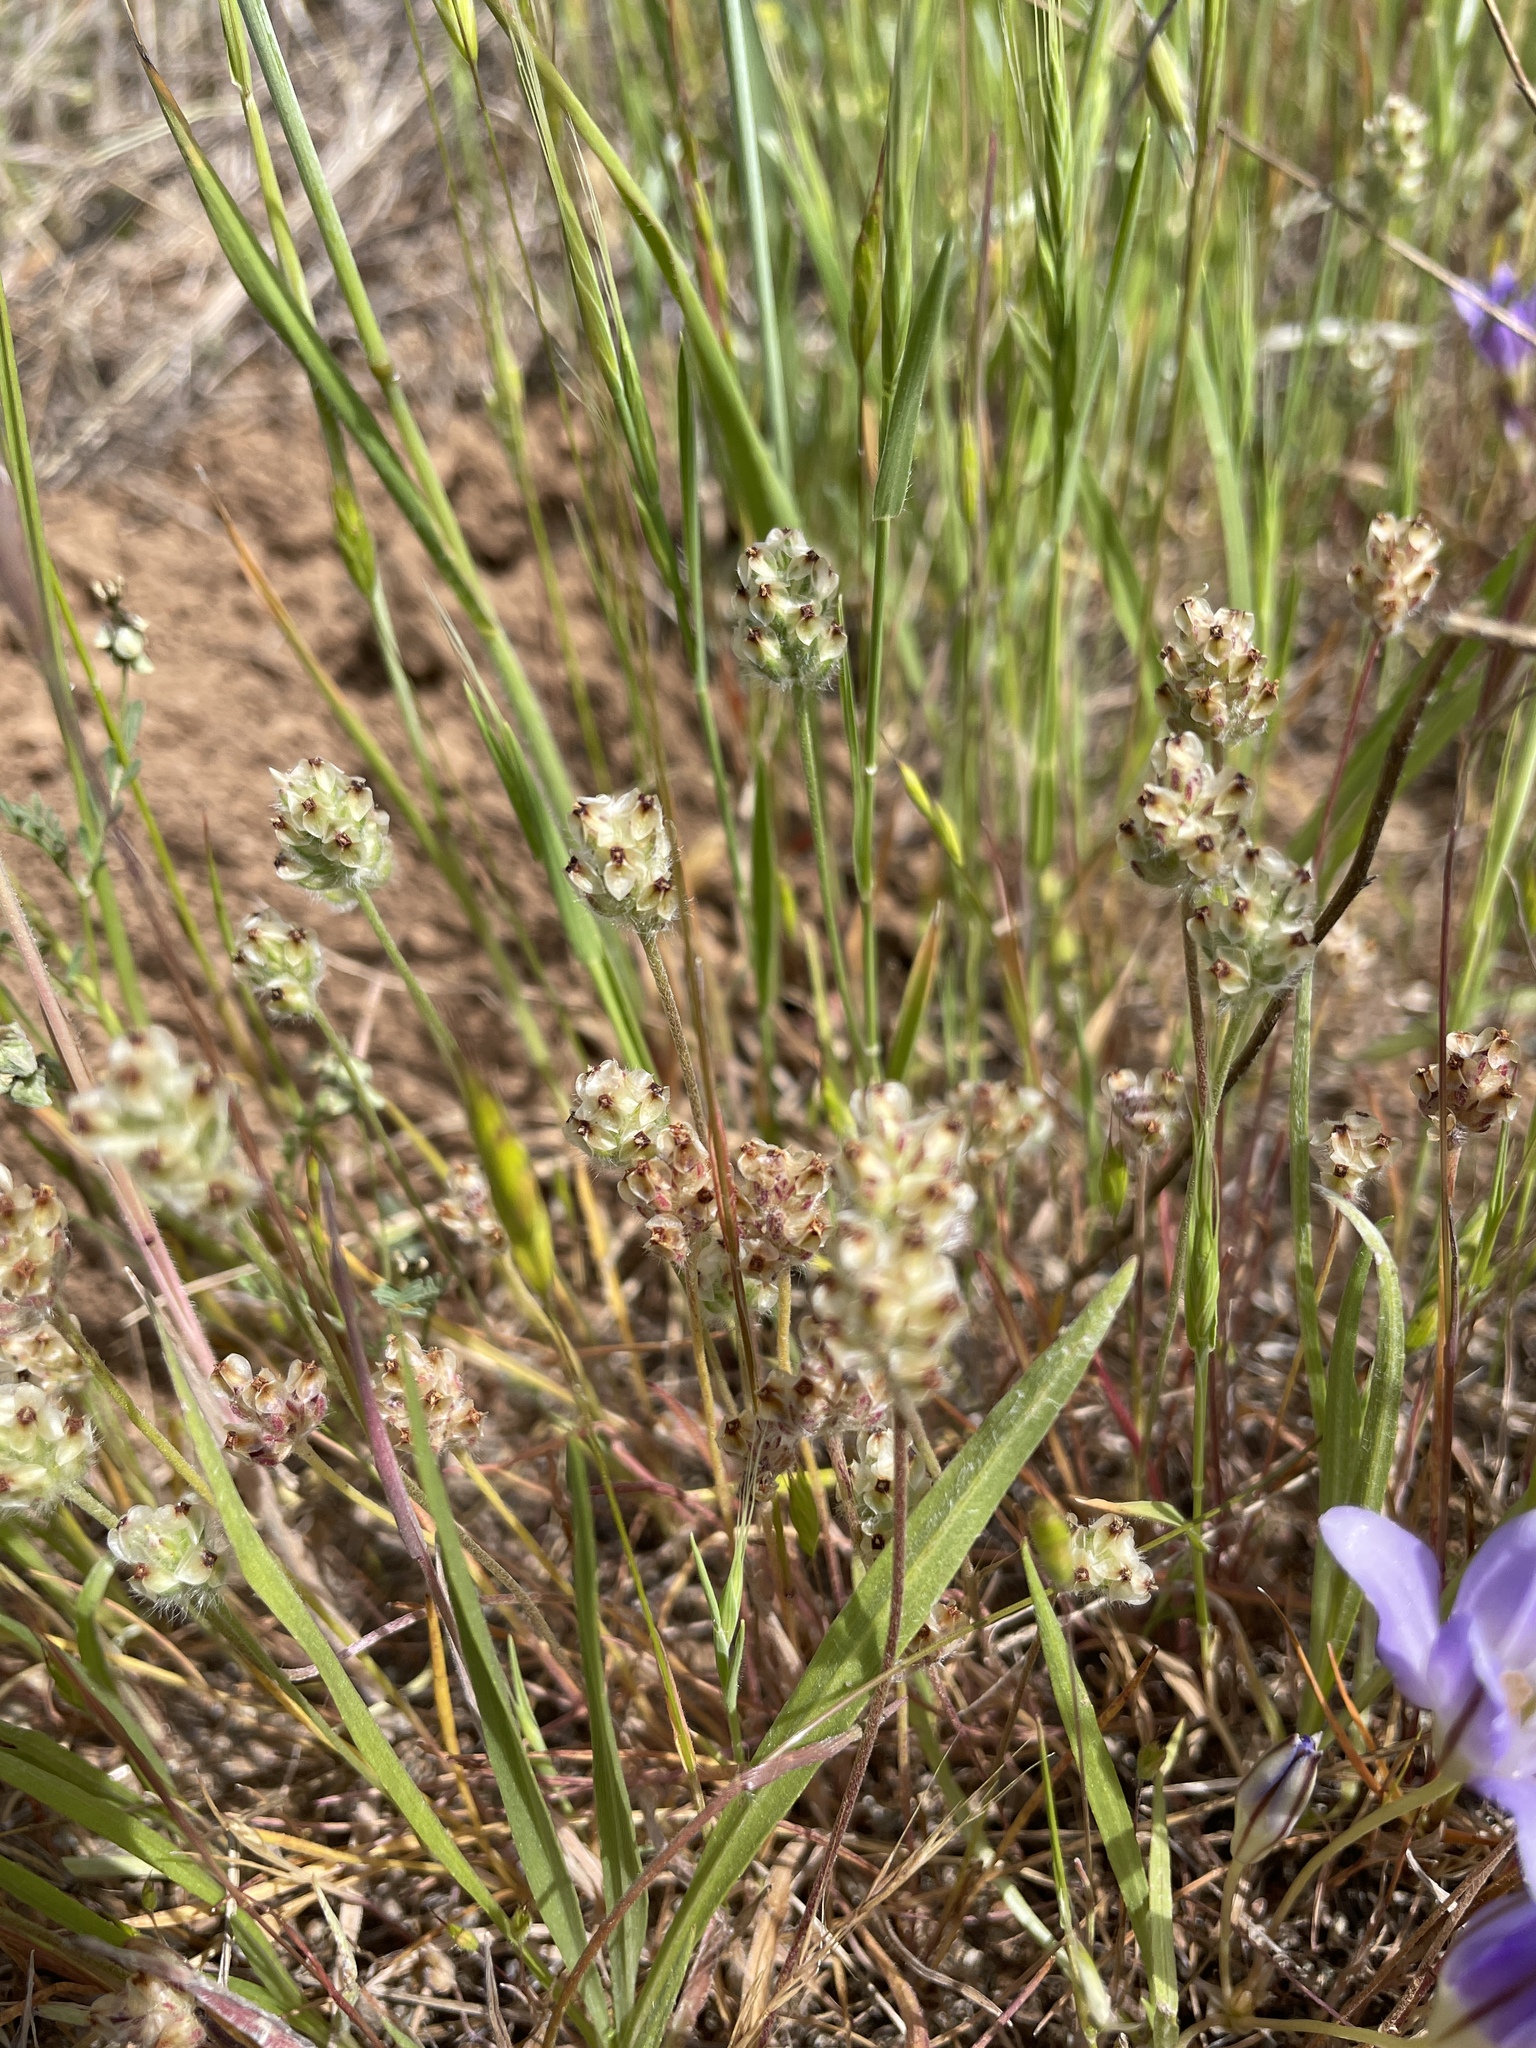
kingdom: Plantae
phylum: Tracheophyta
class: Magnoliopsida
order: Lamiales
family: Plantaginaceae
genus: Plantago
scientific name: Plantago erecta
